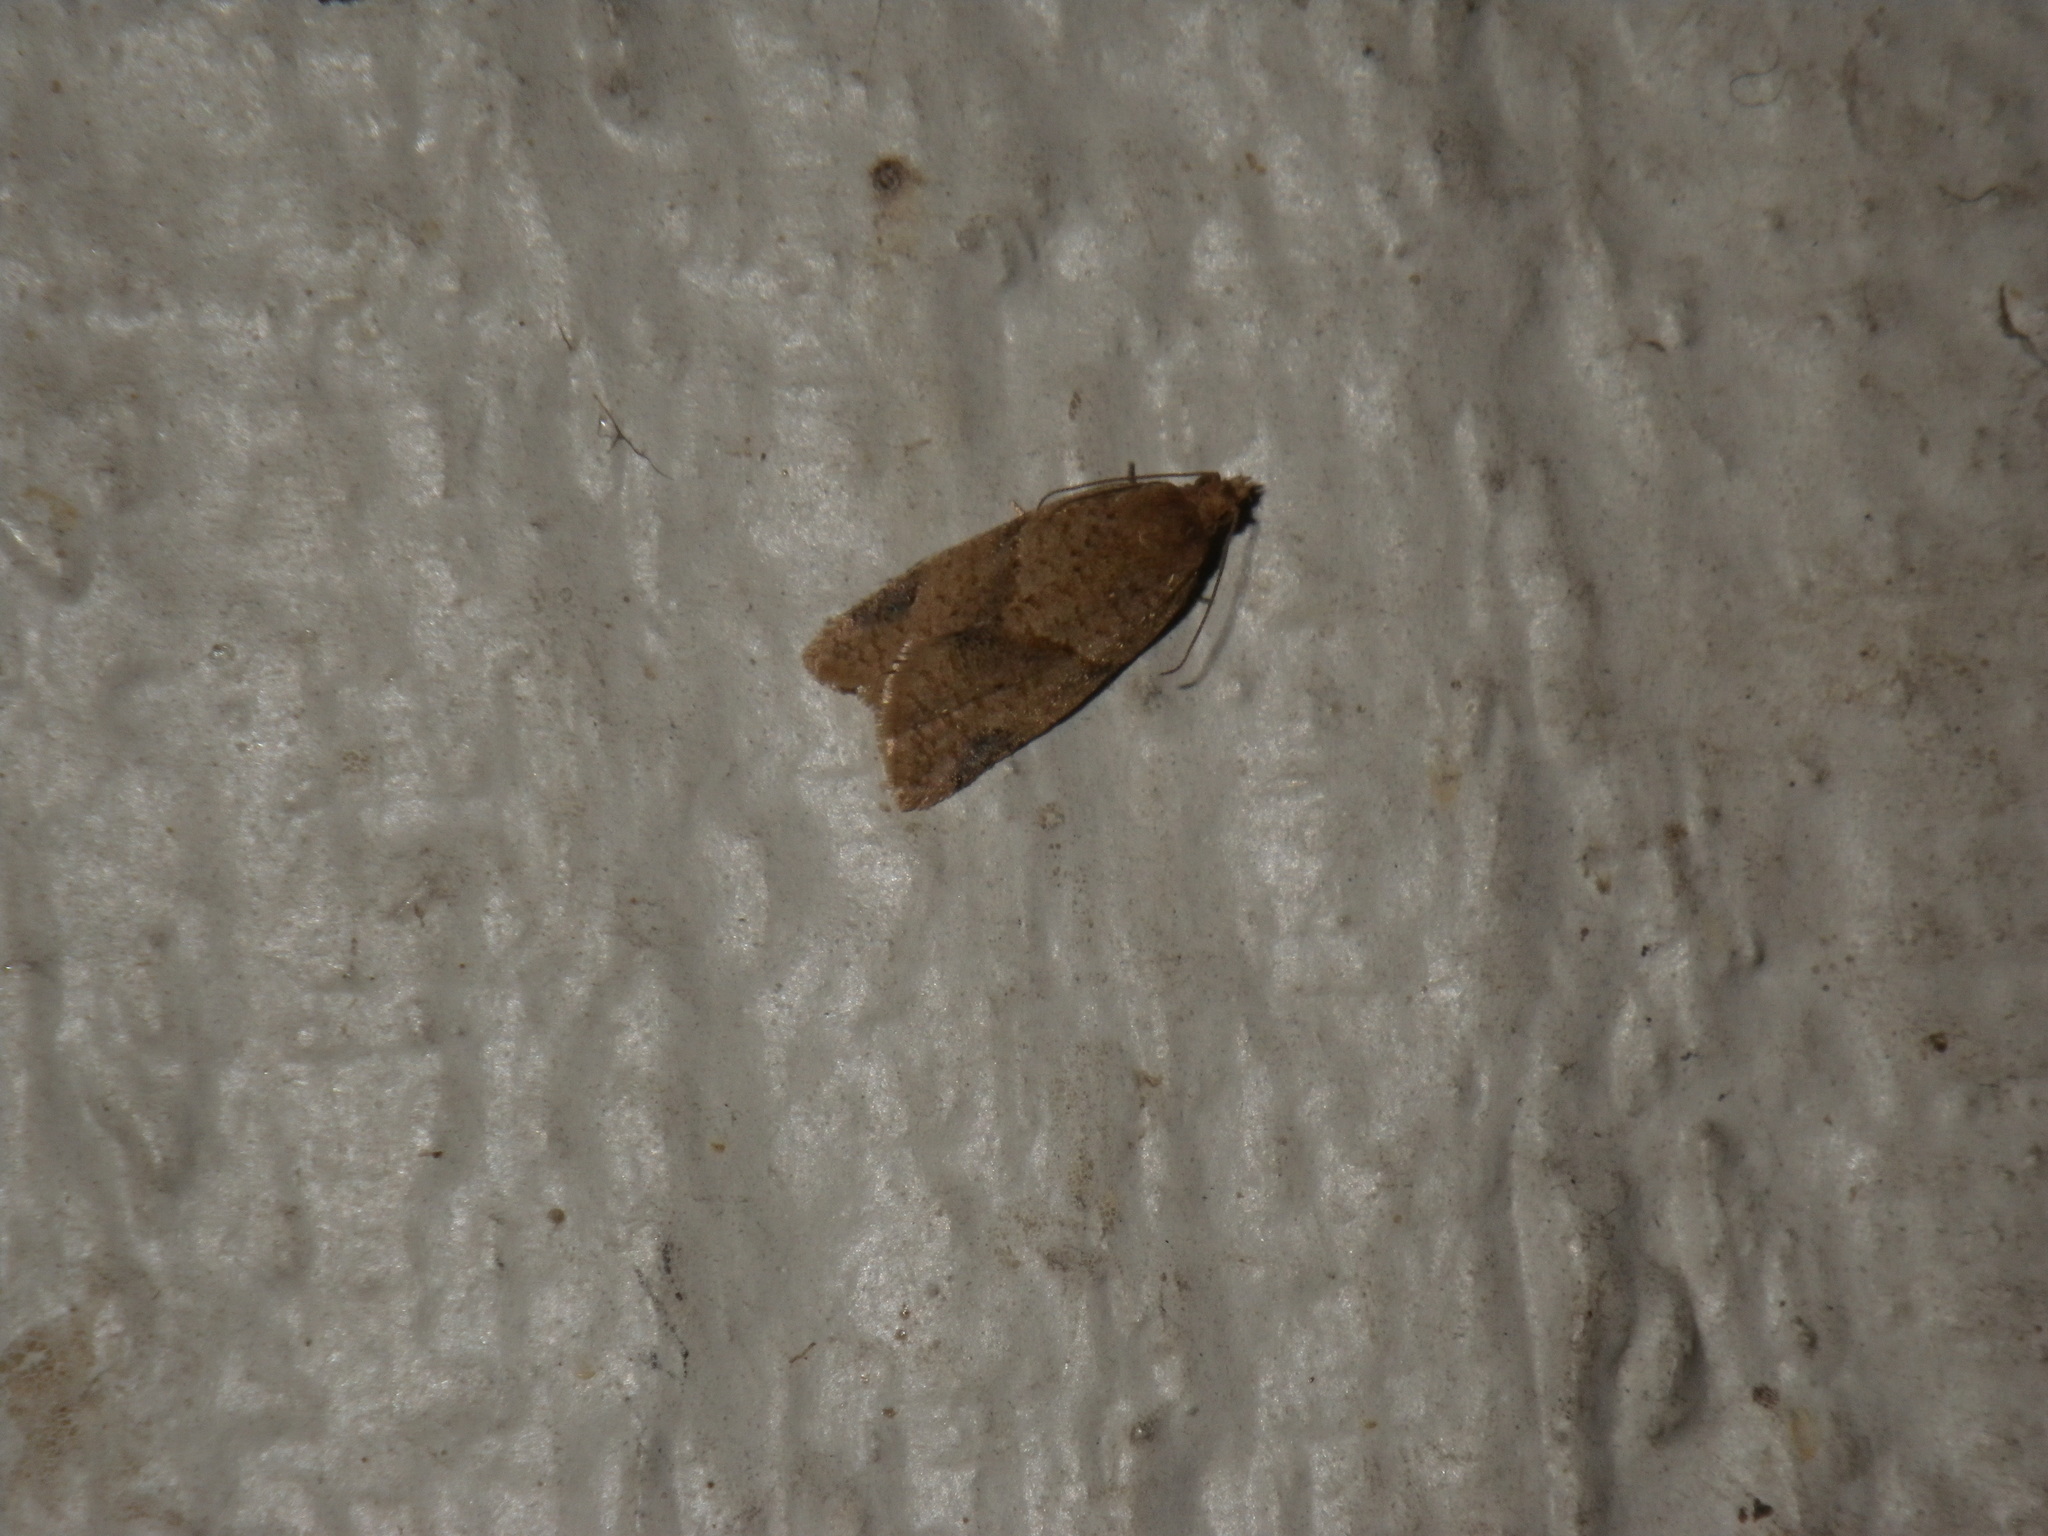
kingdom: Animalia
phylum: Arthropoda
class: Insecta
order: Lepidoptera
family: Tortricidae
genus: Clepsis
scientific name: Clepsis peritana
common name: Garden tortrix
